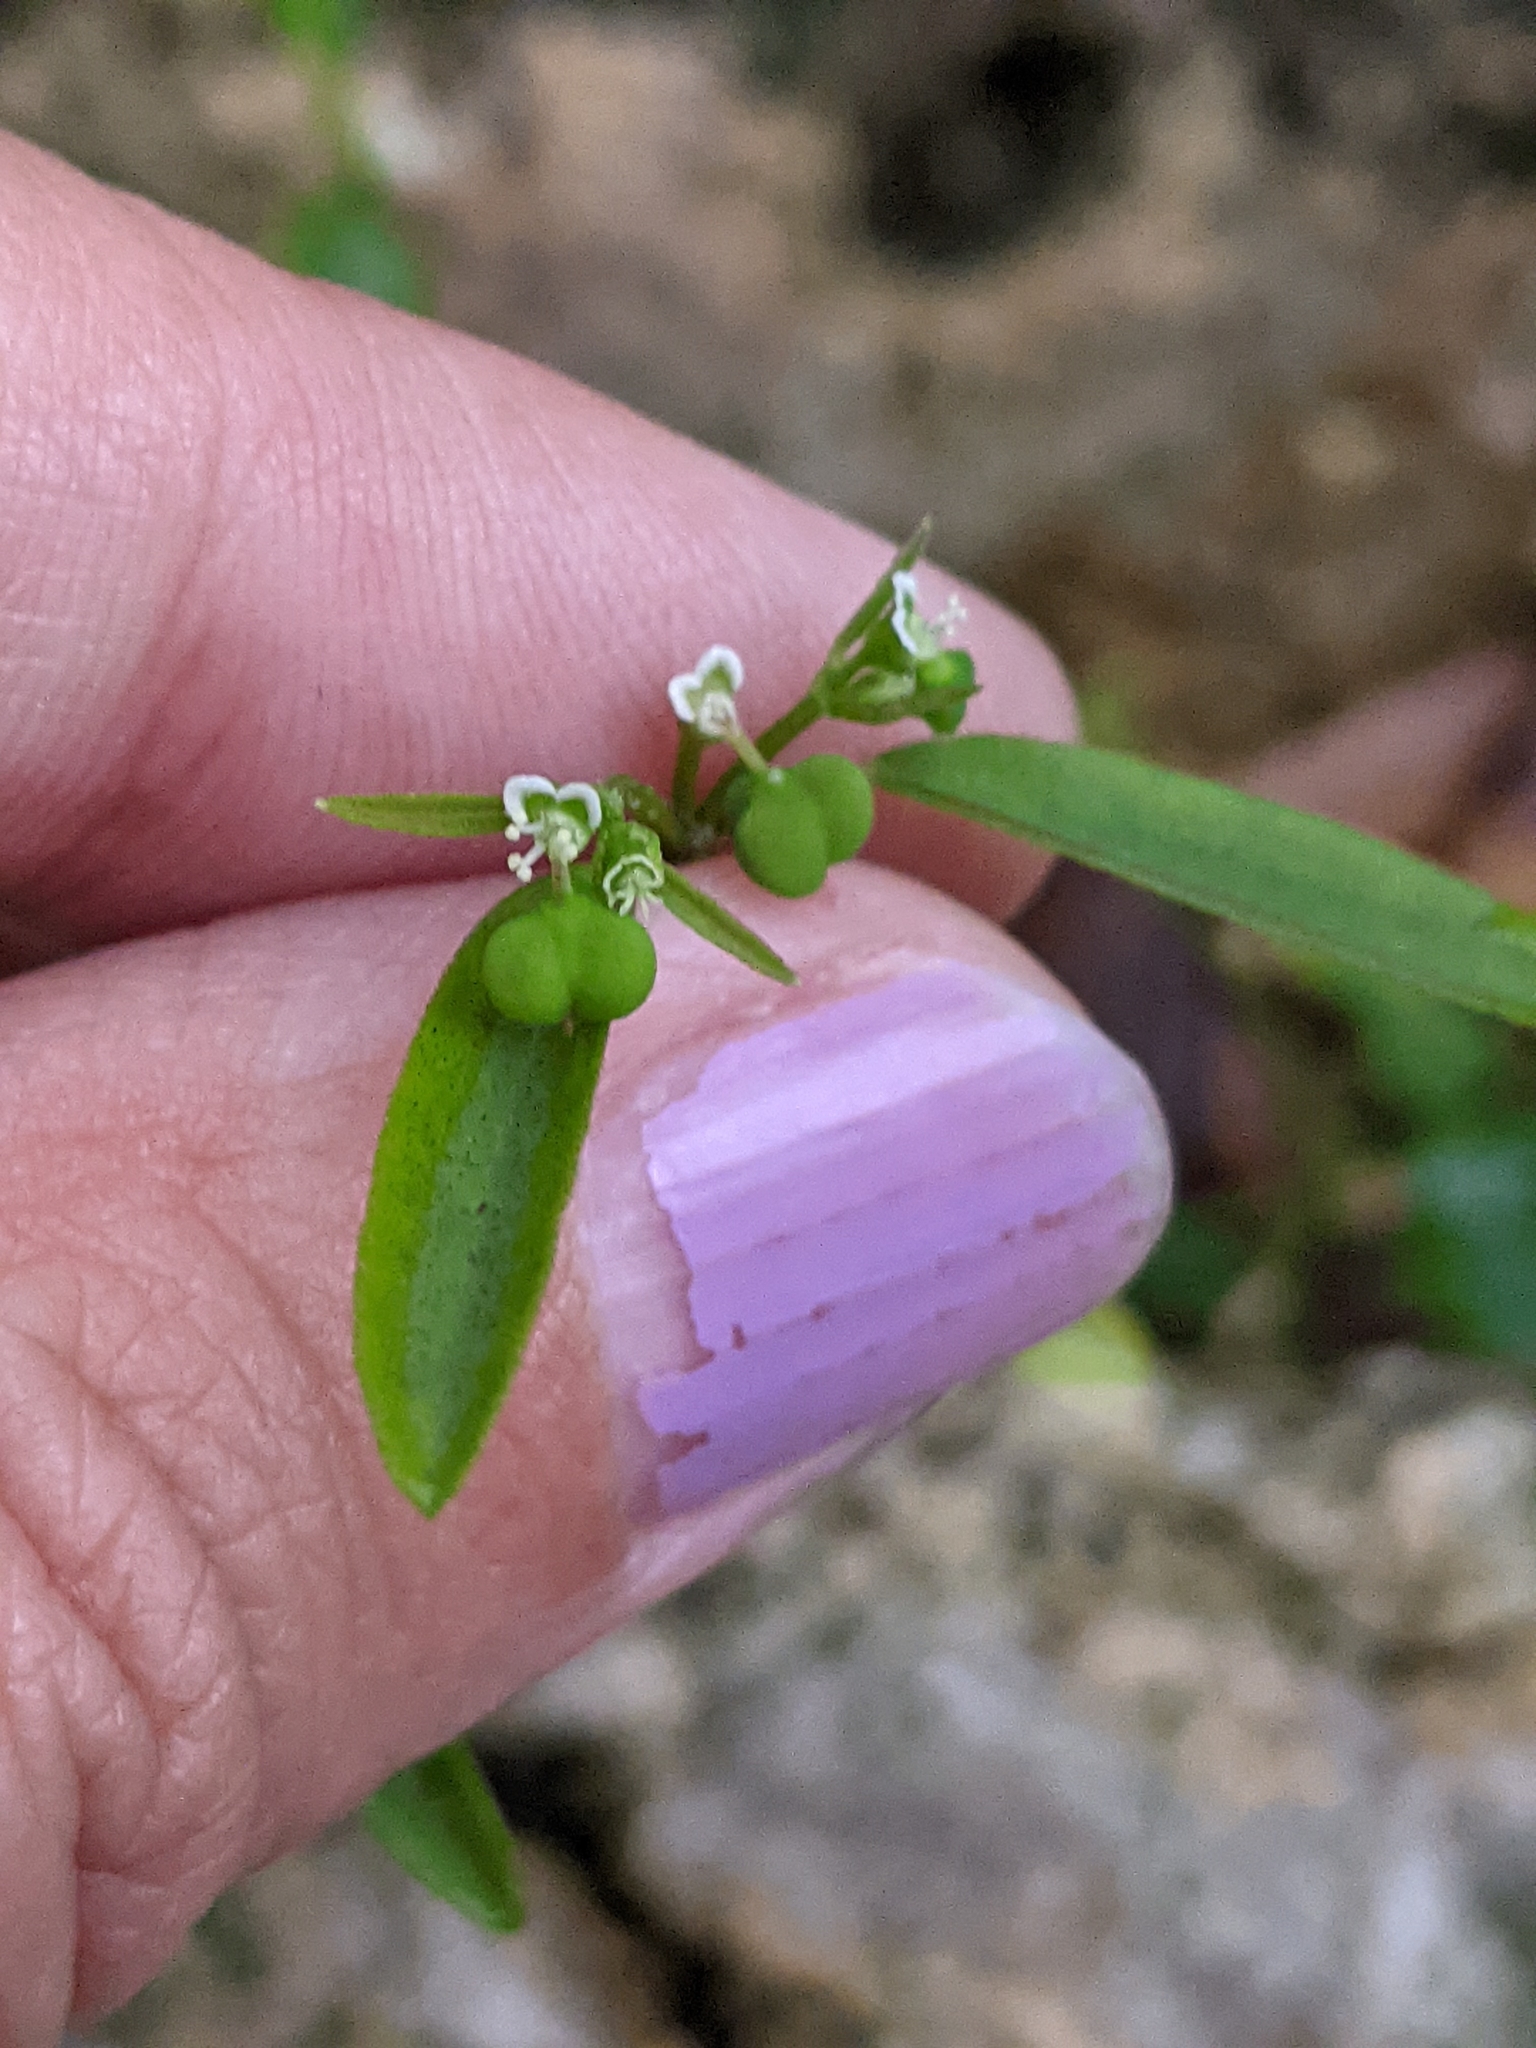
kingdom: Plantae
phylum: Tracheophyta
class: Magnoliopsida
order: Malpighiales
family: Euphorbiaceae
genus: Euphorbia
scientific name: Euphorbia graminea
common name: Grassleaf spurge
